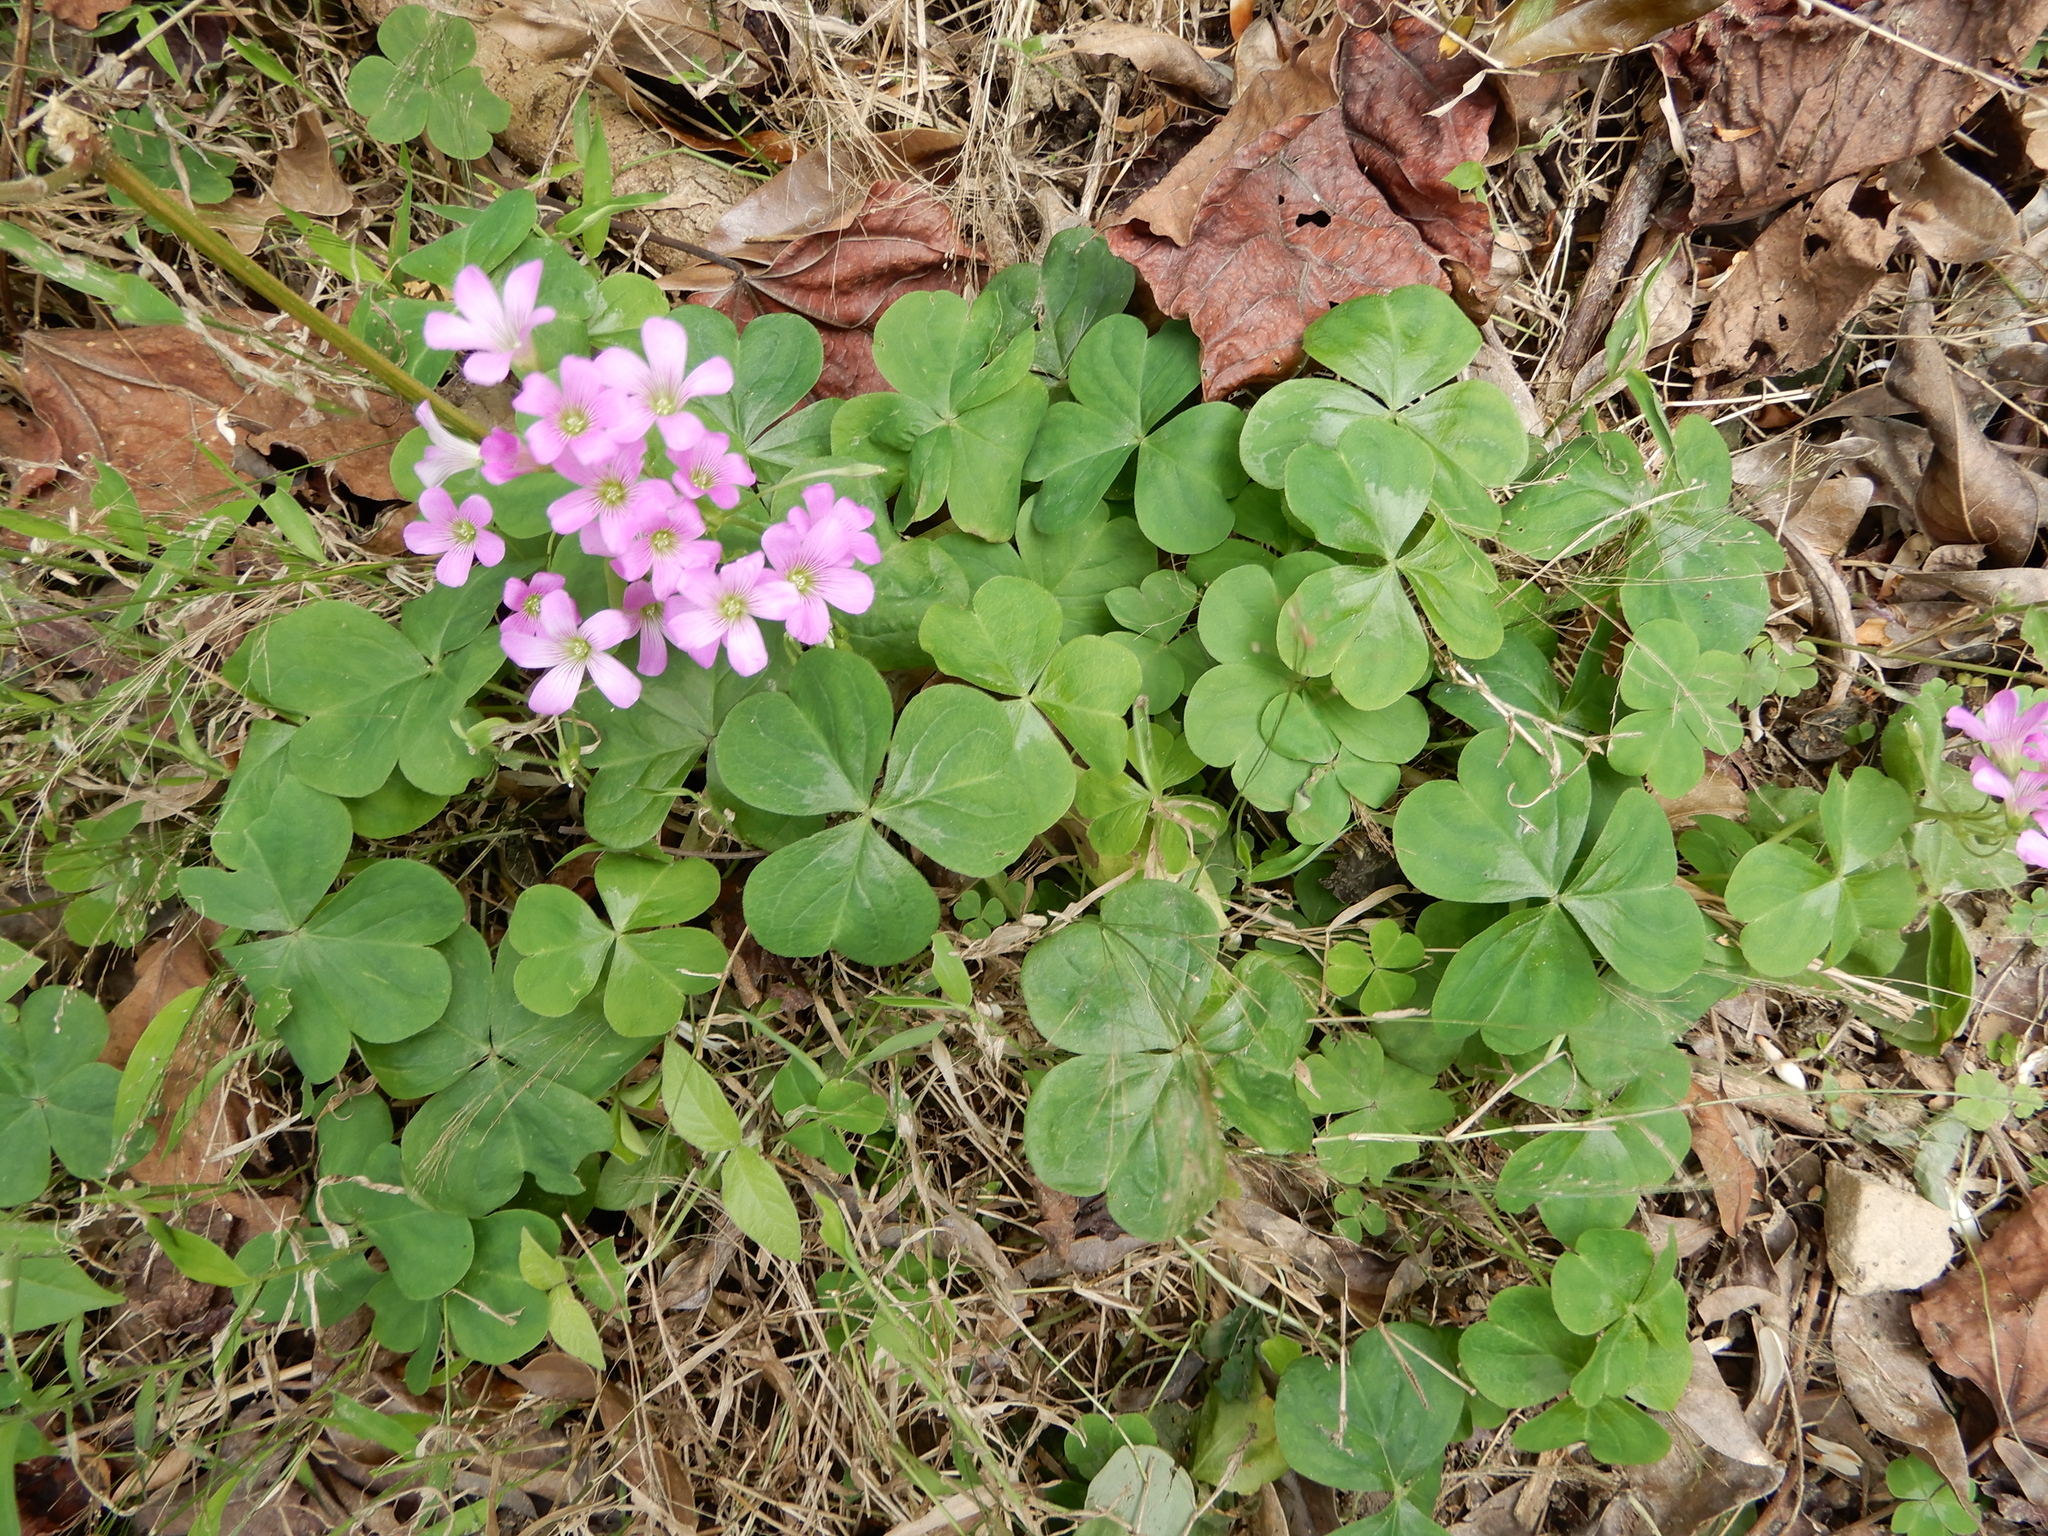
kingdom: Plantae
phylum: Tracheophyta
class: Magnoliopsida
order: Oxalidales
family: Oxalidaceae
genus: Oxalis
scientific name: Oxalis debilis
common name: Large-flowered pink-sorrel
